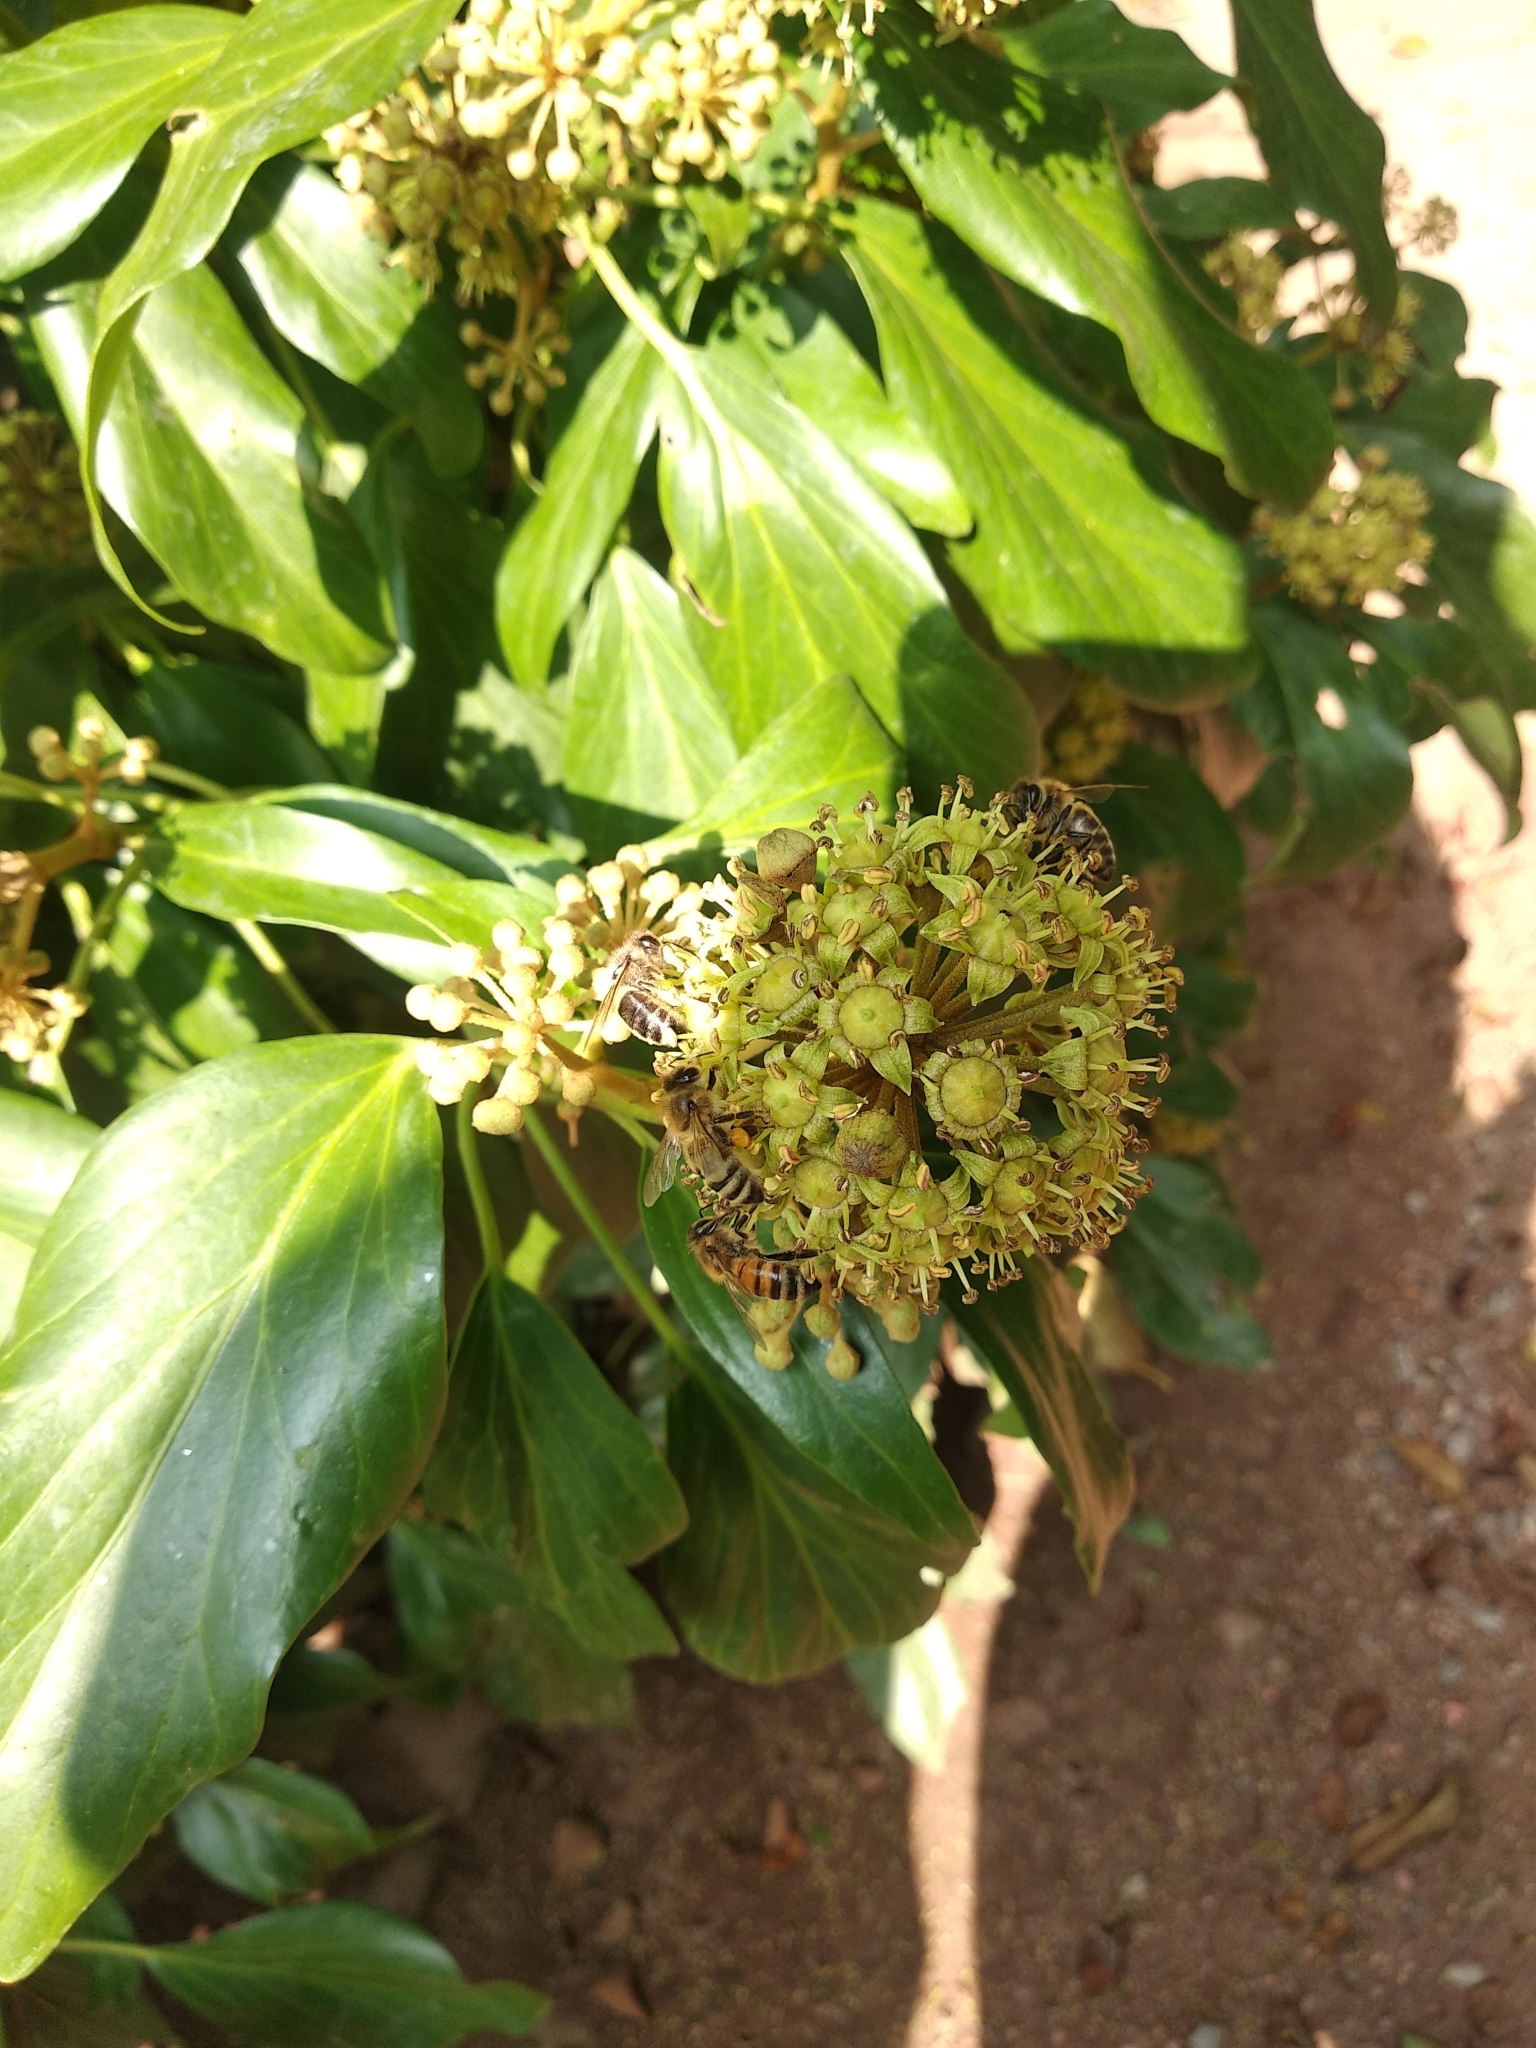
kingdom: Plantae
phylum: Tracheophyta
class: Magnoliopsida
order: Apiales
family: Araliaceae
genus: Hedera
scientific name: Hedera helix
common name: Ivy
